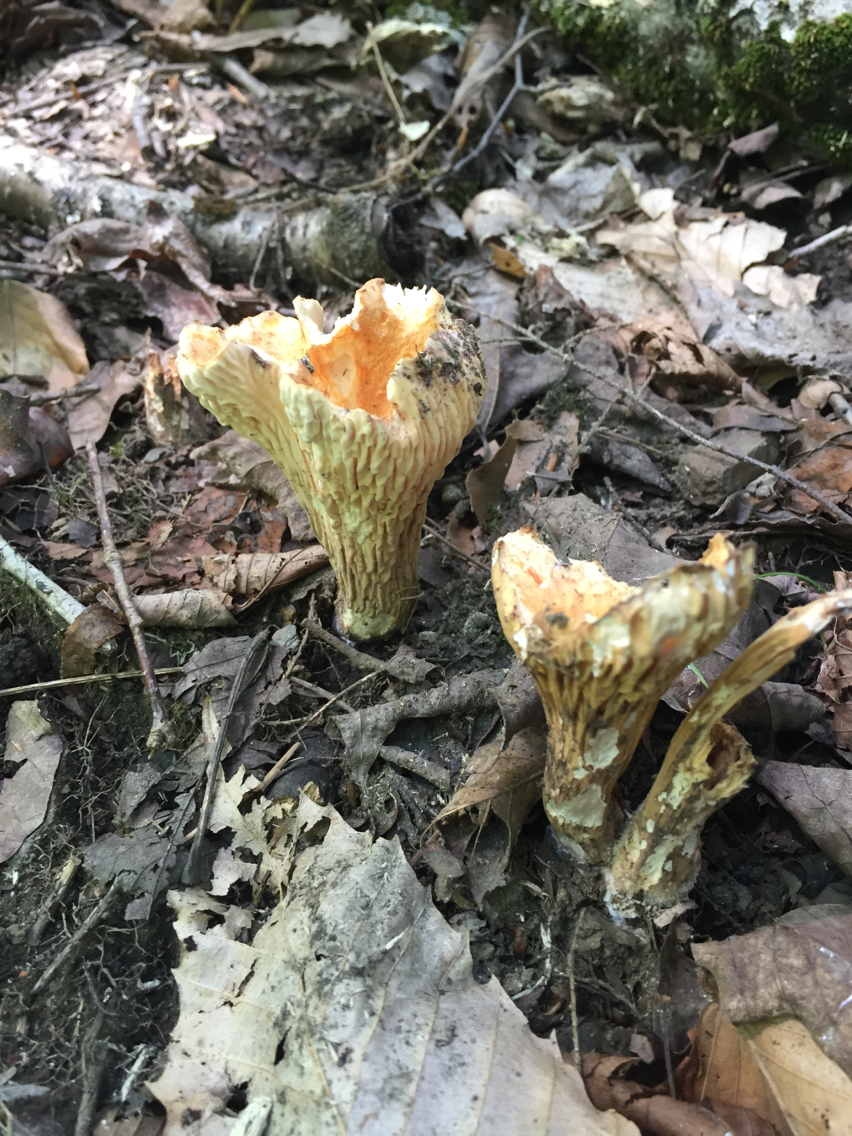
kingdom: Fungi
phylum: Basidiomycota
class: Agaricomycetes
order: Gomphales
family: Gomphaceae
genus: Turbinellus
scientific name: Turbinellus floccosus
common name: Scaly chanterelle
